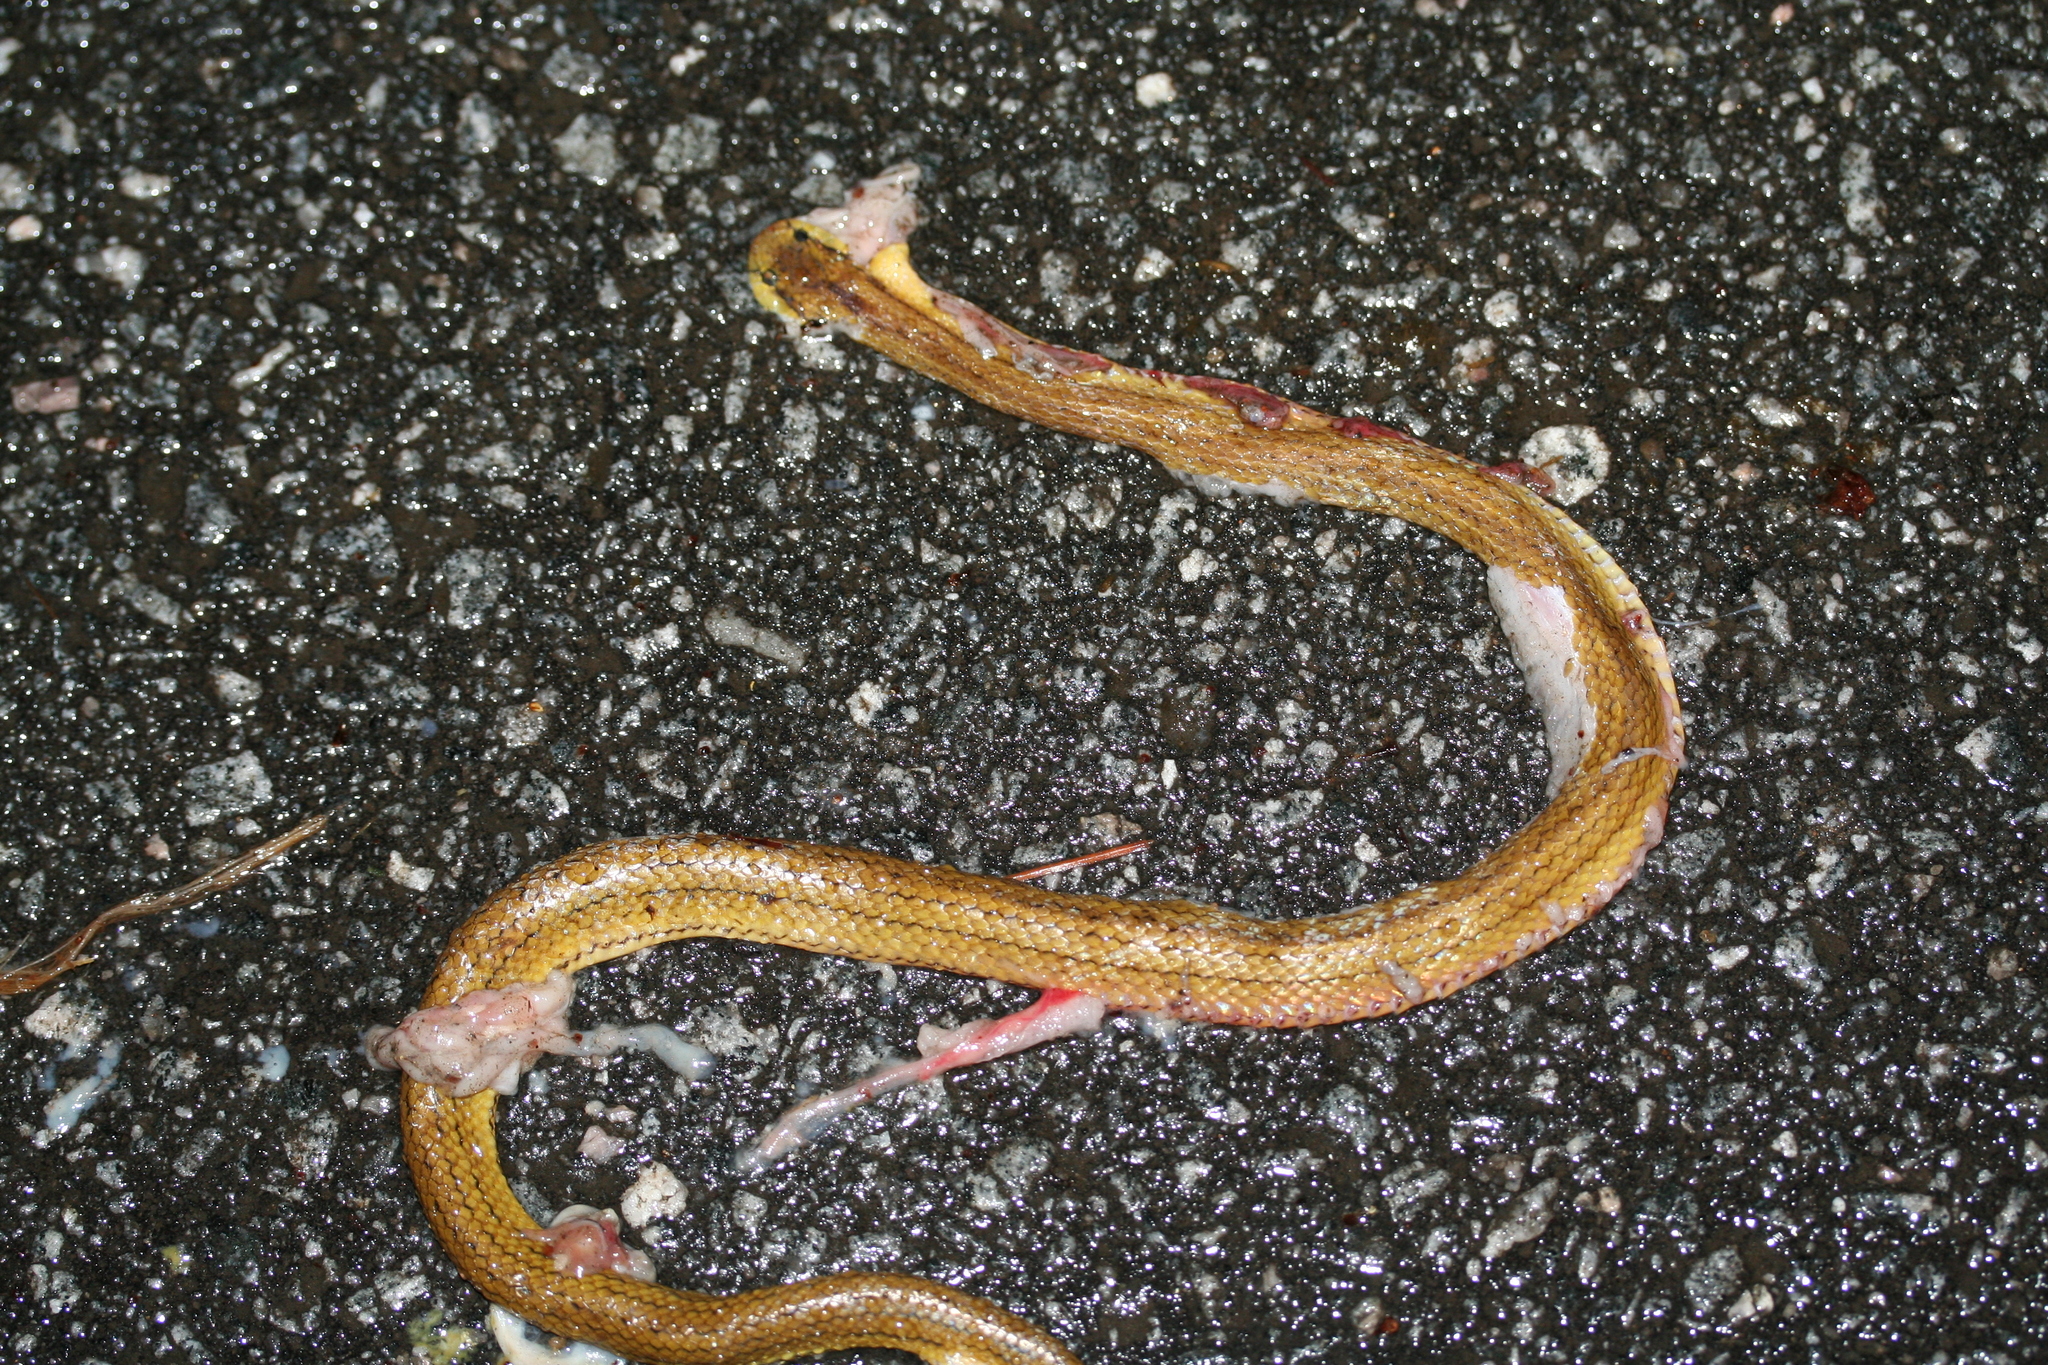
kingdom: Animalia
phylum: Chordata
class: Squamata
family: Pseudoxyrhophiidae
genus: Compsophis
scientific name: Compsophis laphystius
